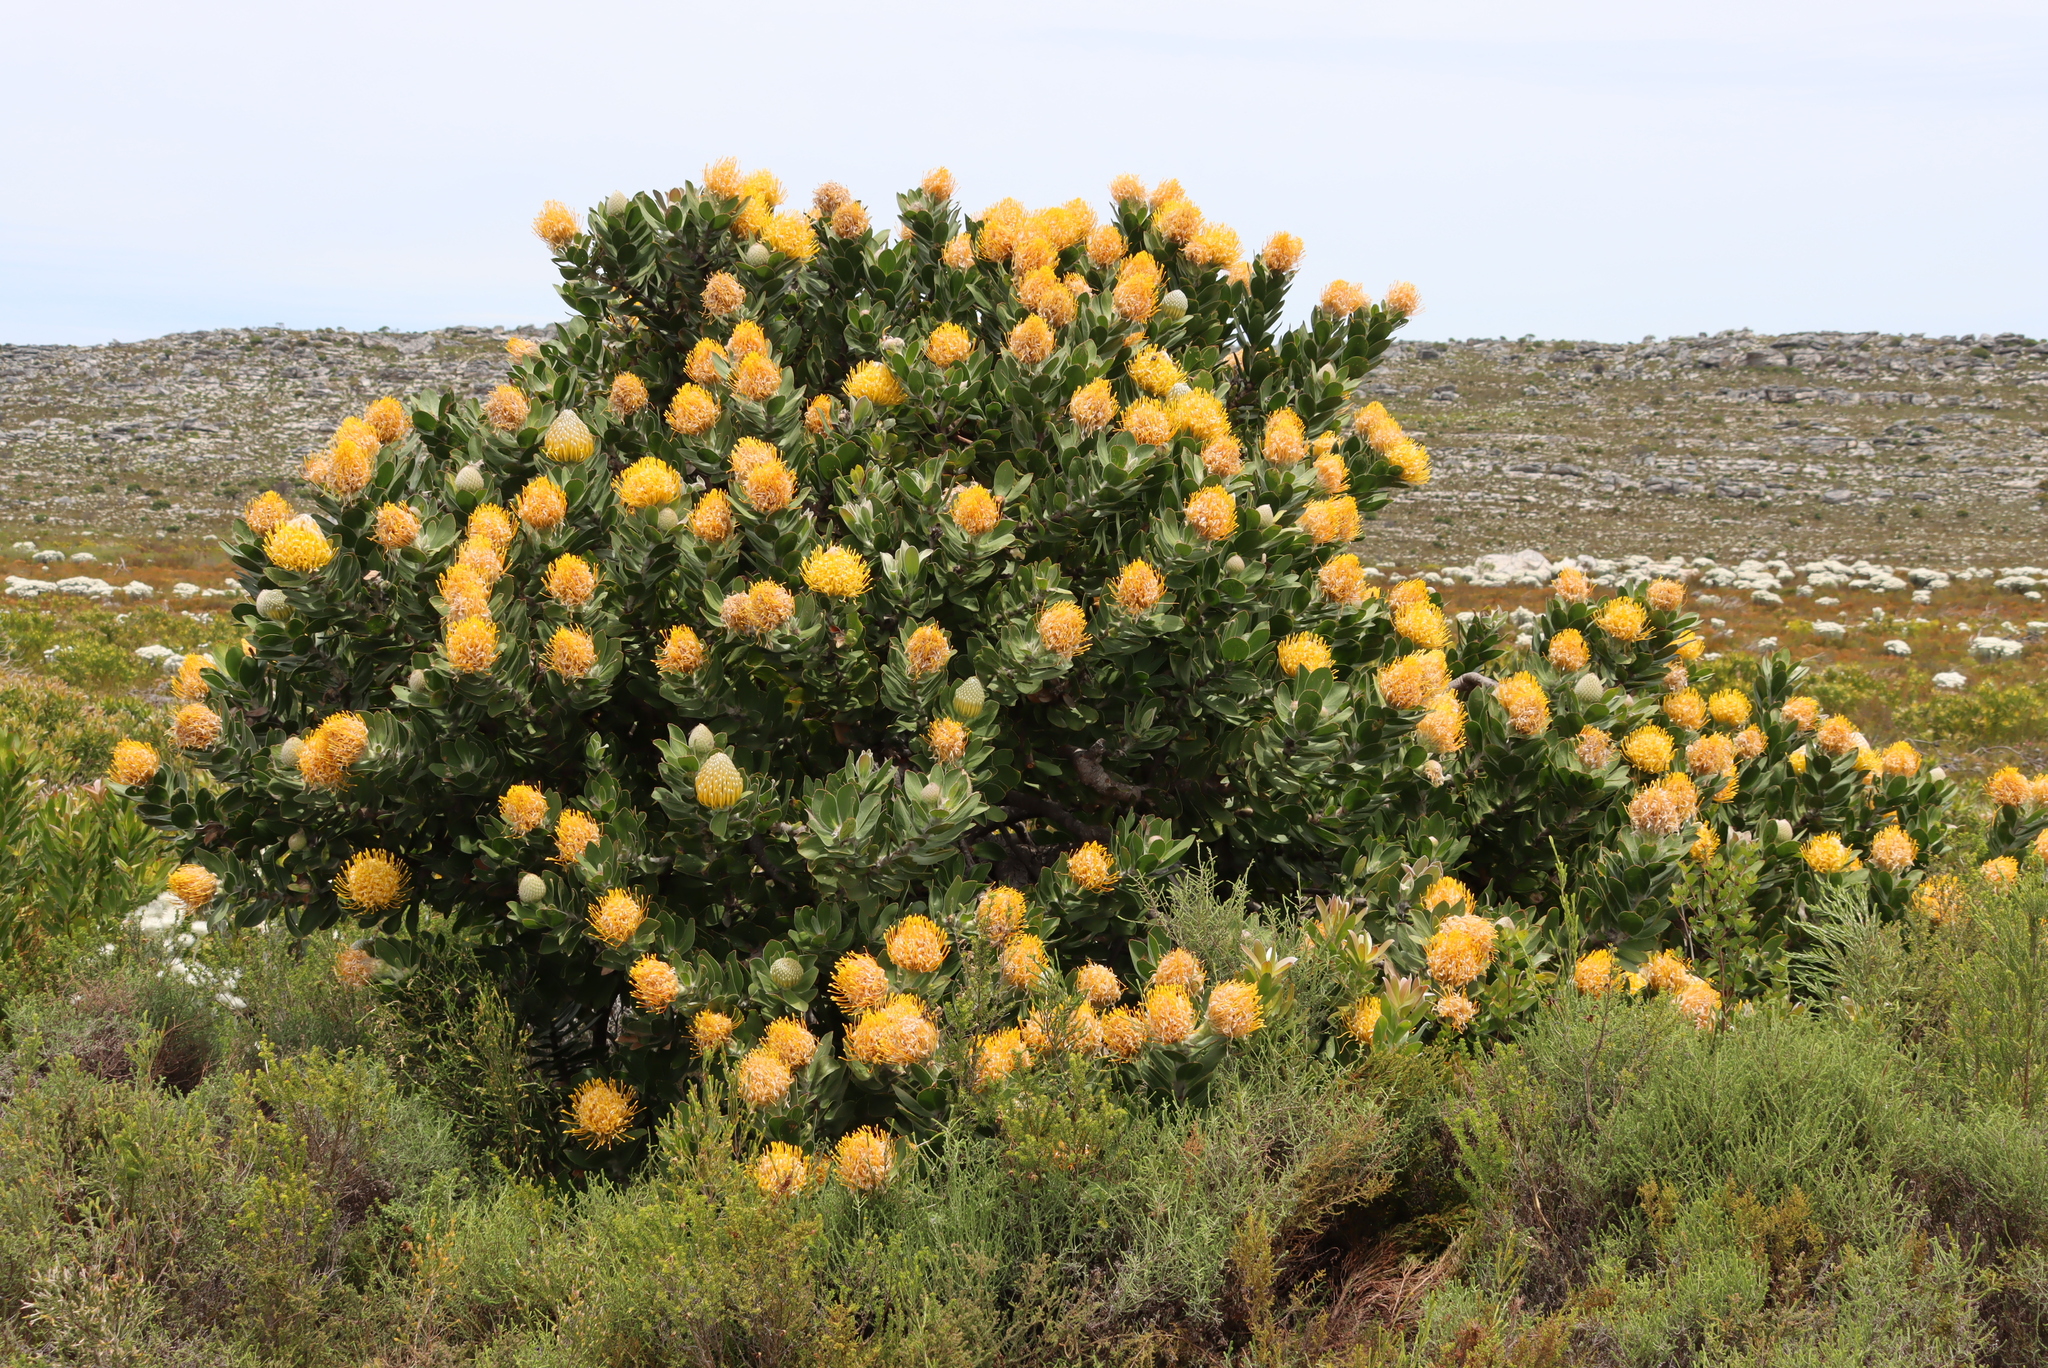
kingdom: Plantae
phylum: Tracheophyta
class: Magnoliopsida
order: Proteales
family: Proteaceae
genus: Leucospermum
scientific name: Leucospermum conocarpodendron
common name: Tree pincushion
